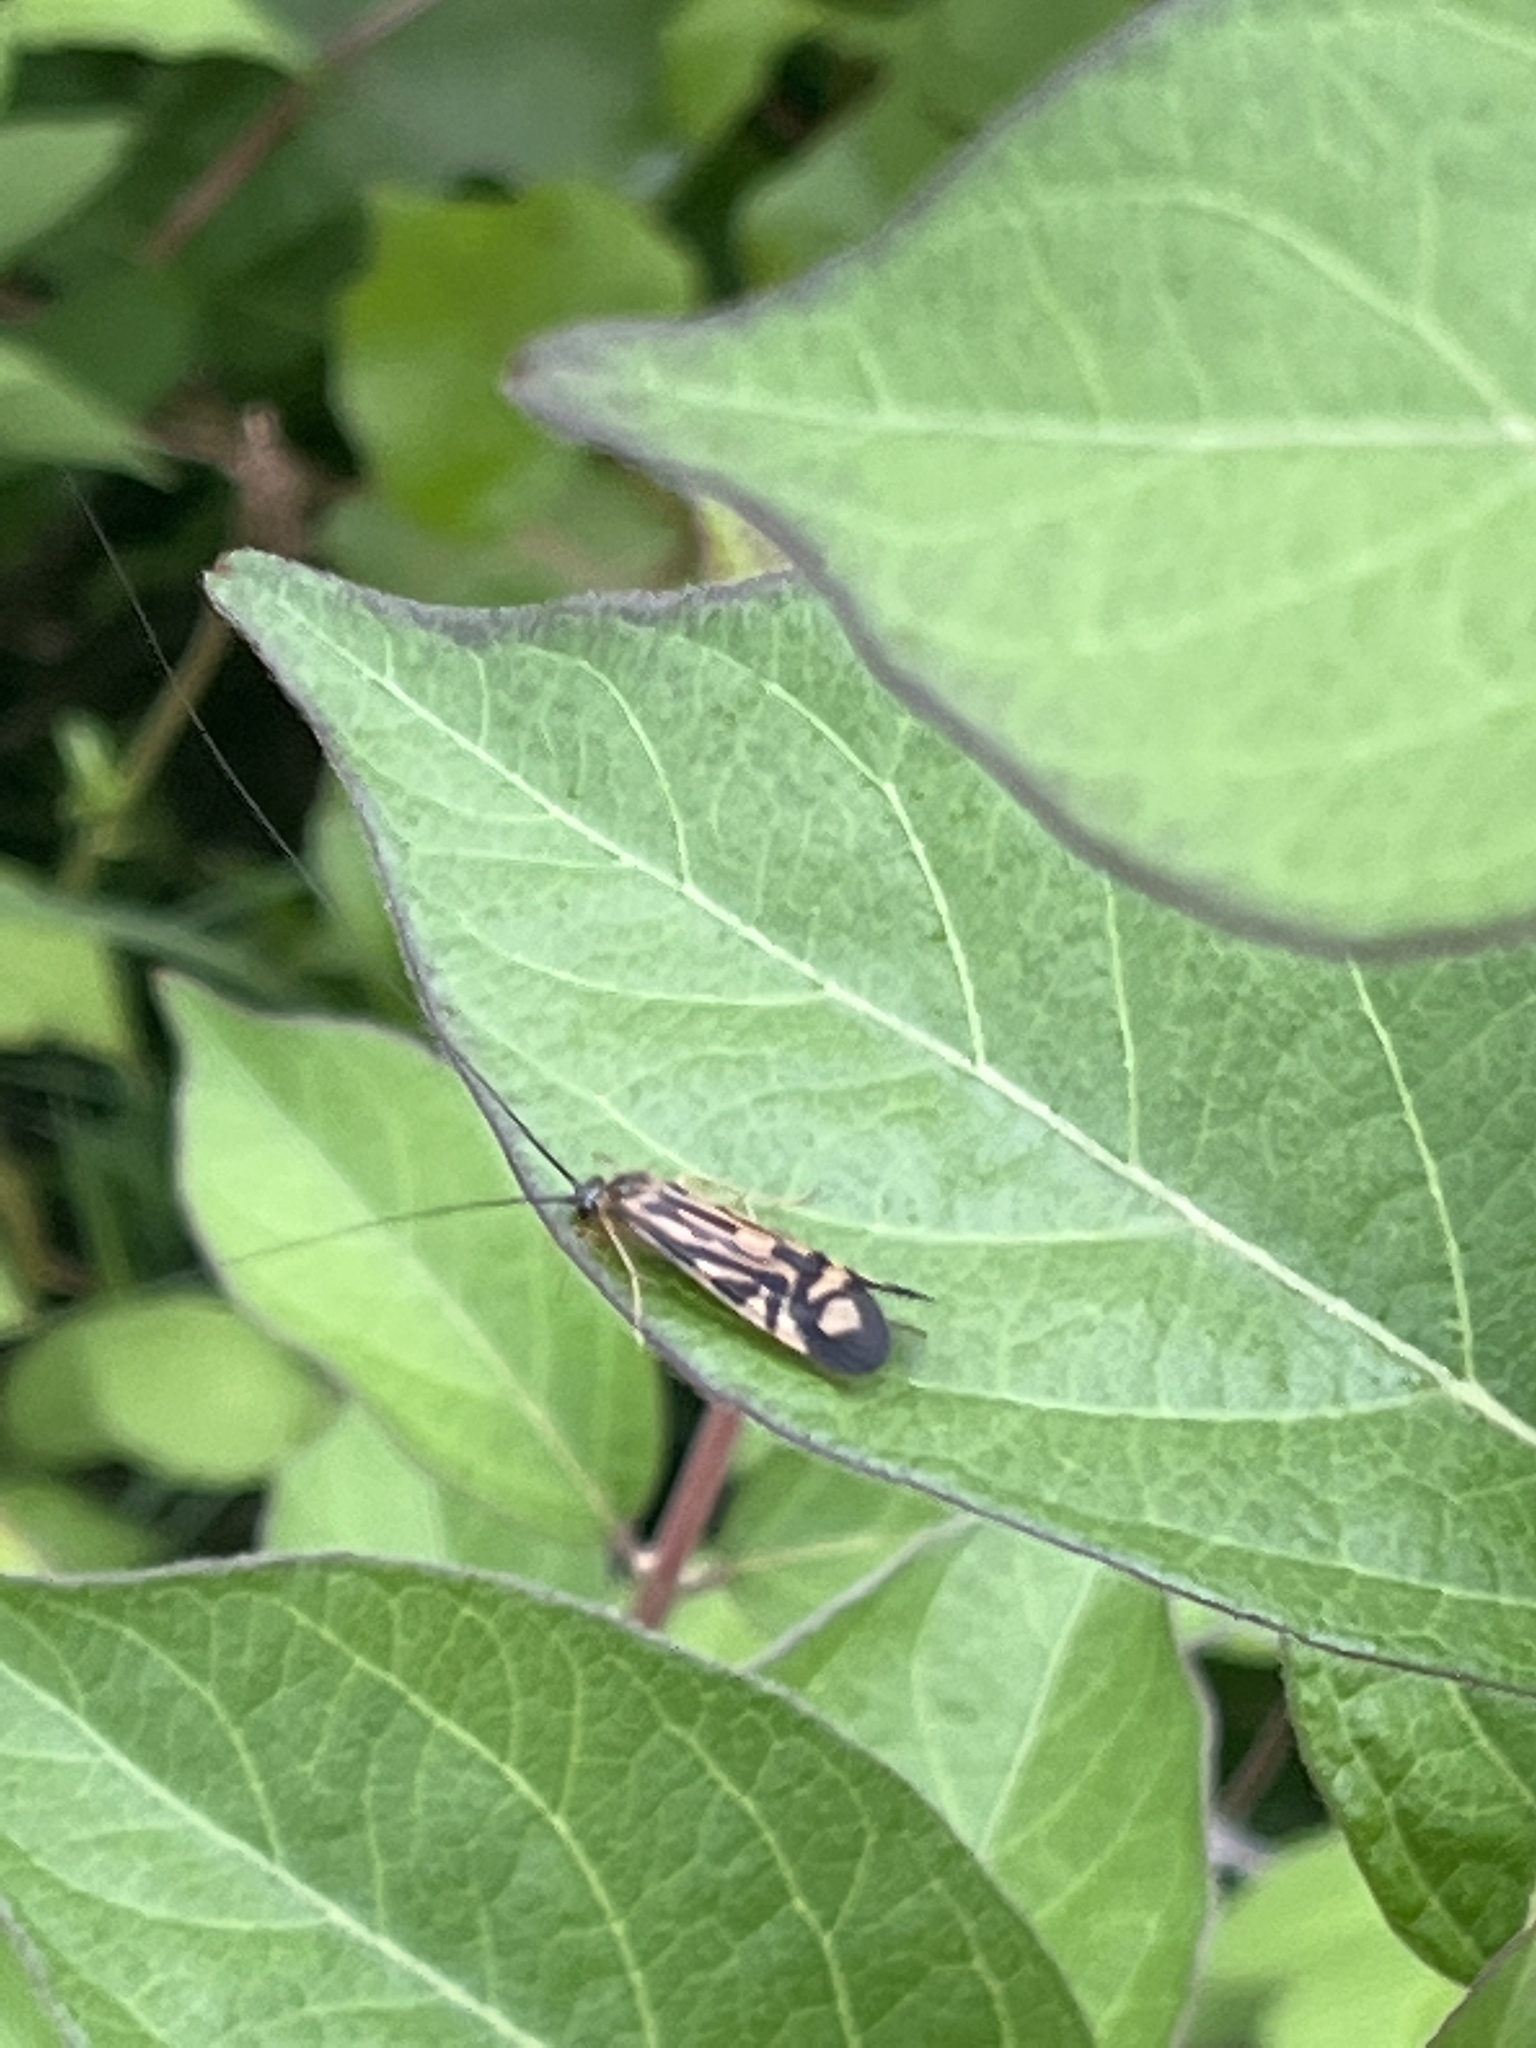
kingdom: Animalia
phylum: Arthropoda
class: Insecta
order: Trichoptera
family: Hydropsychidae
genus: Macrostemum
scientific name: Macrostemum zebratum
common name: Zebra caddisfly
